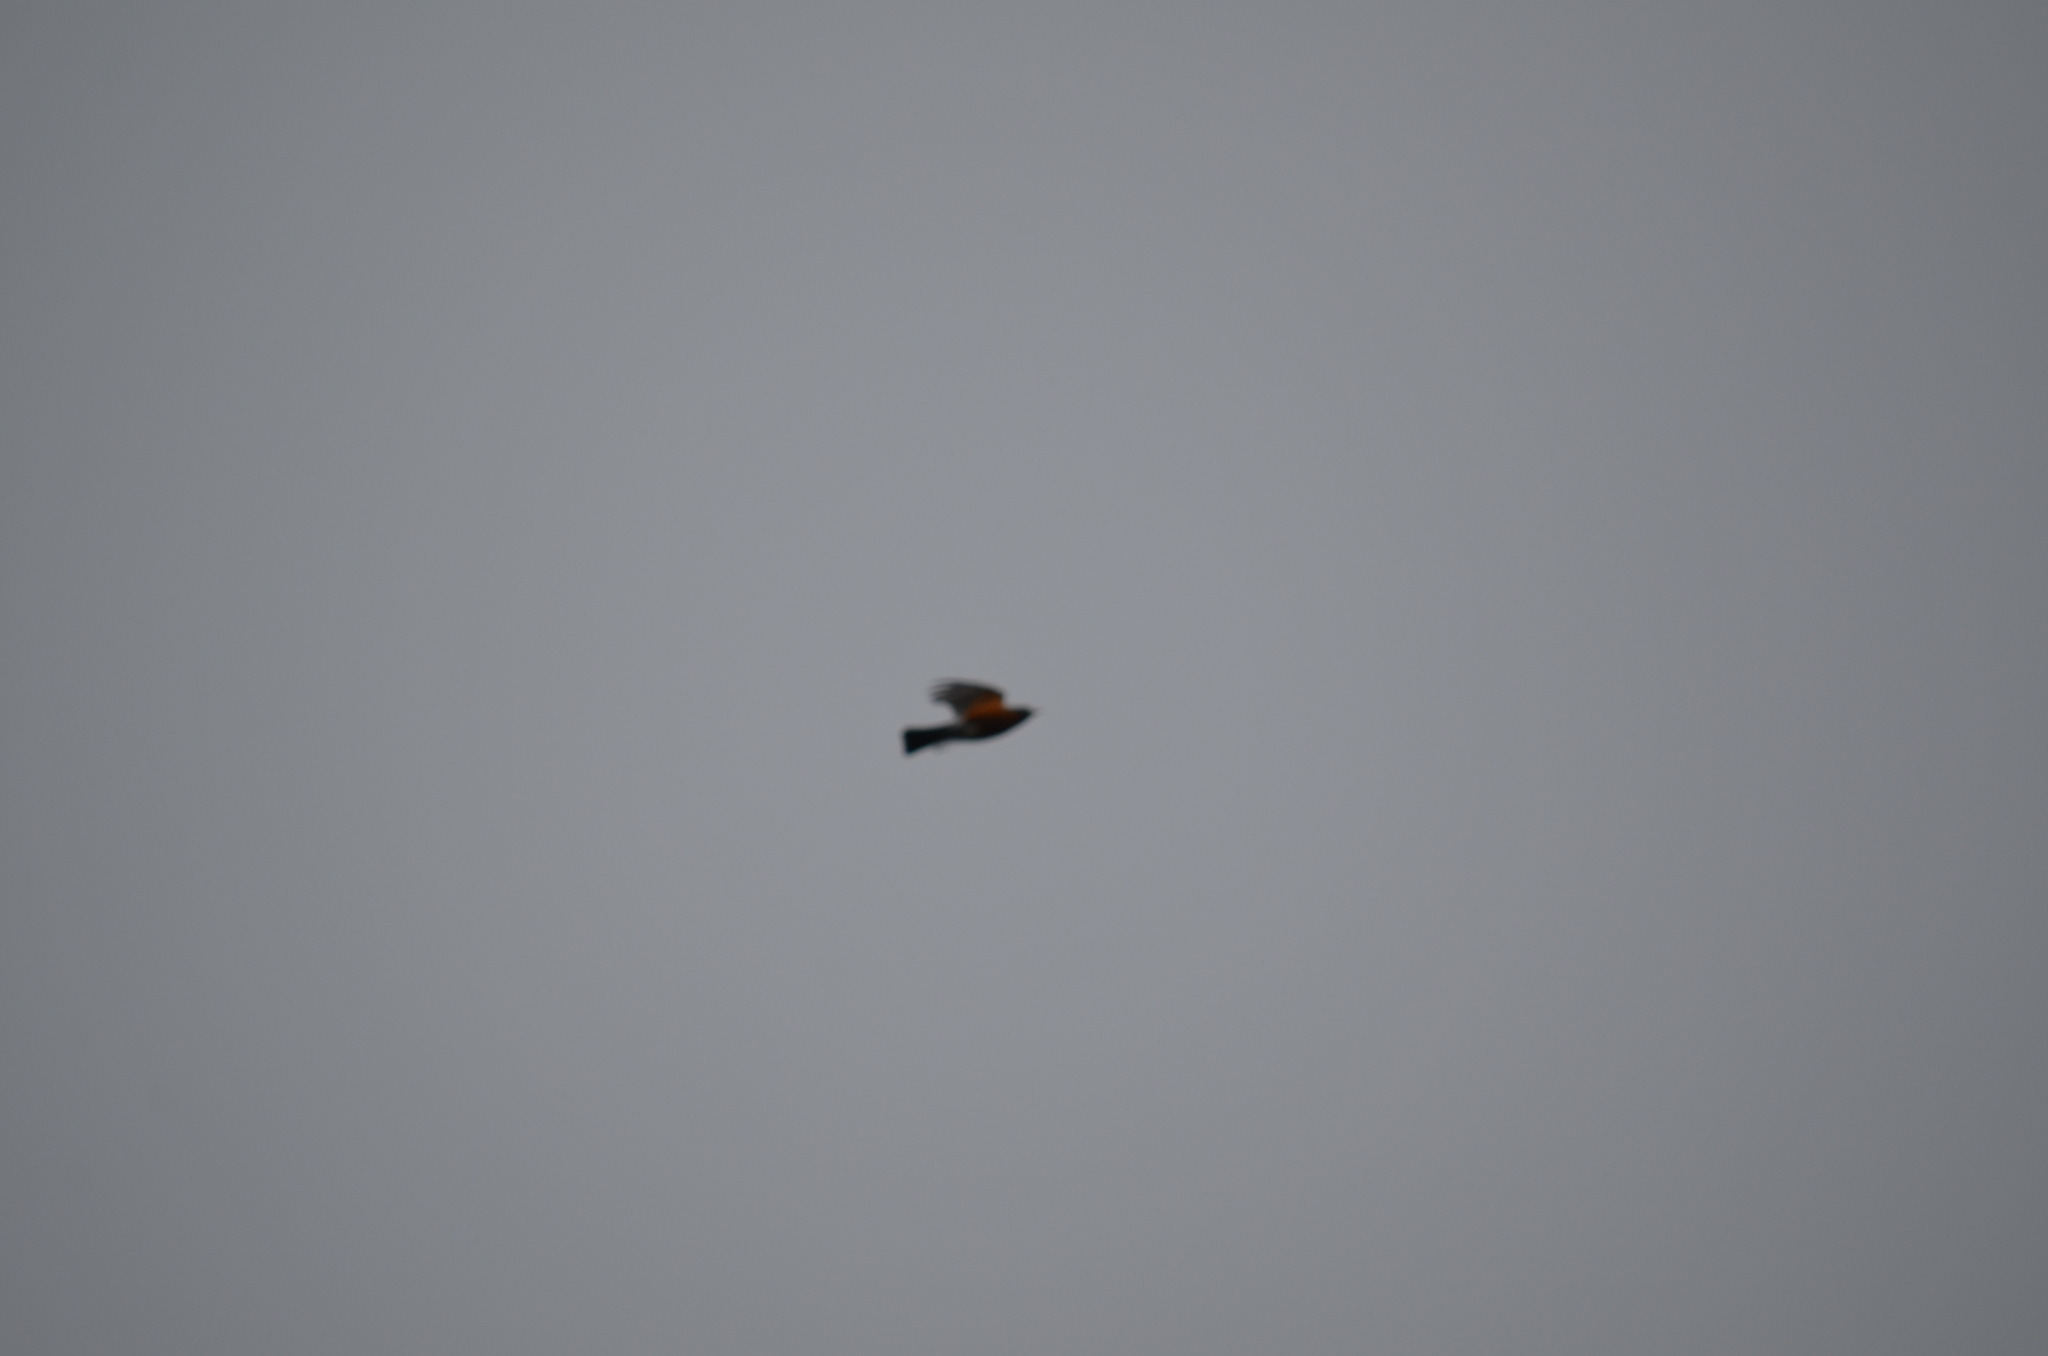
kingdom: Animalia
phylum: Chordata
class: Aves
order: Passeriformes
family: Turdidae
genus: Turdus
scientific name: Turdus migratorius
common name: American robin
